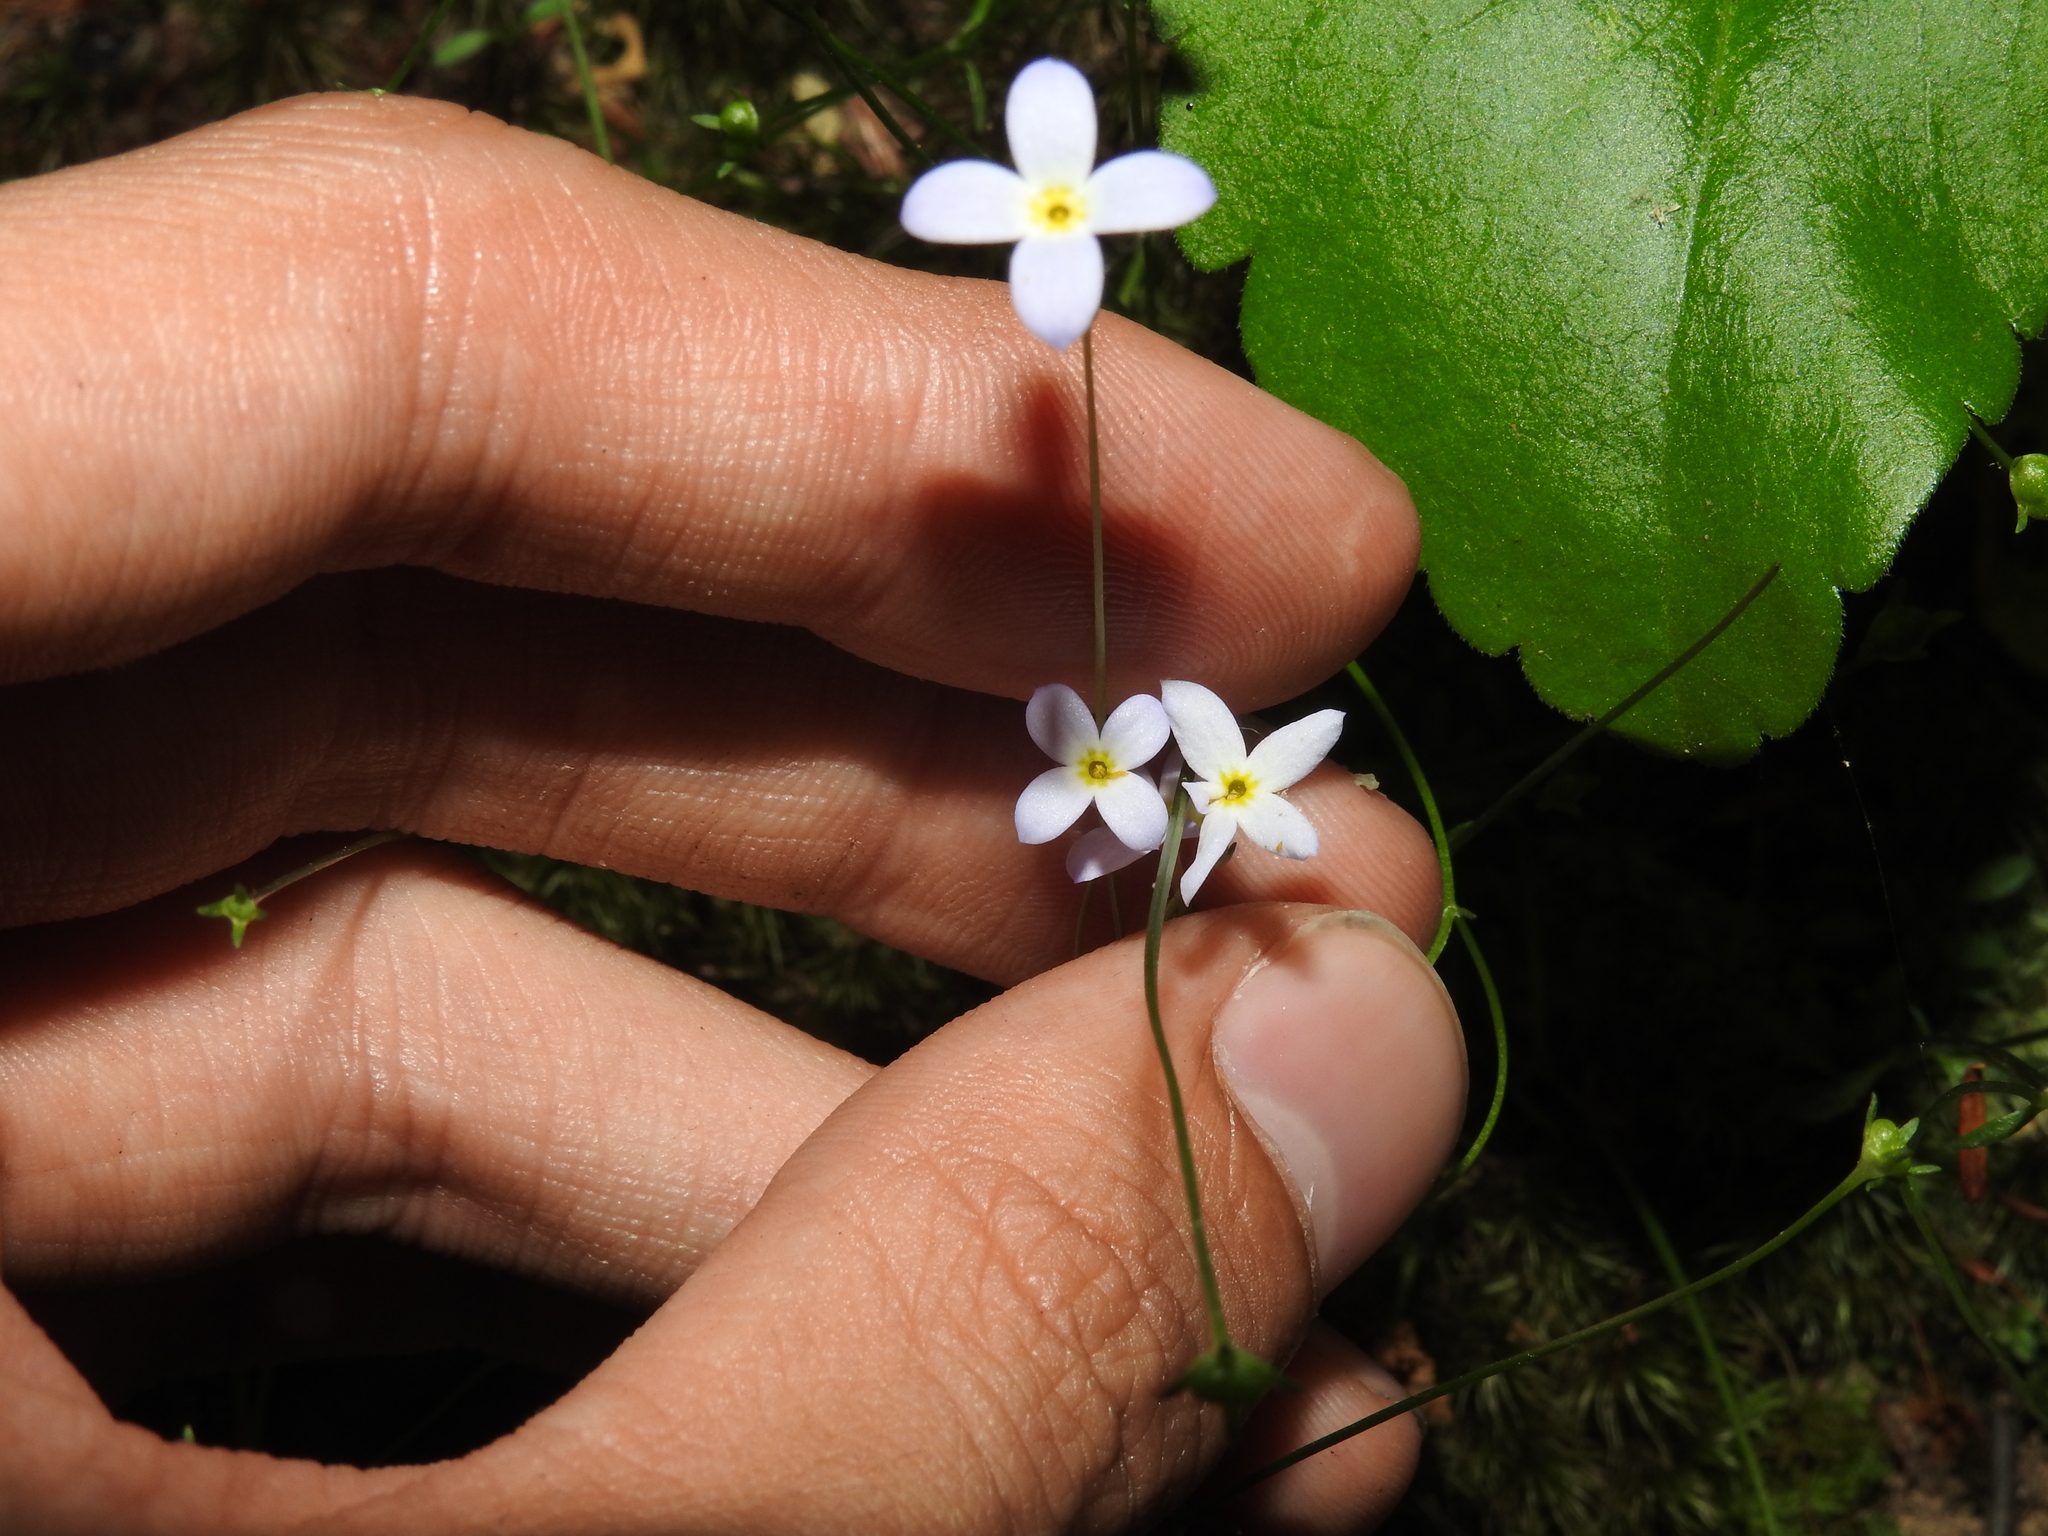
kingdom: Plantae
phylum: Tracheophyta
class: Magnoliopsida
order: Gentianales
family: Rubiaceae
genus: Houstonia
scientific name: Houstonia caerulea
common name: Bluets
